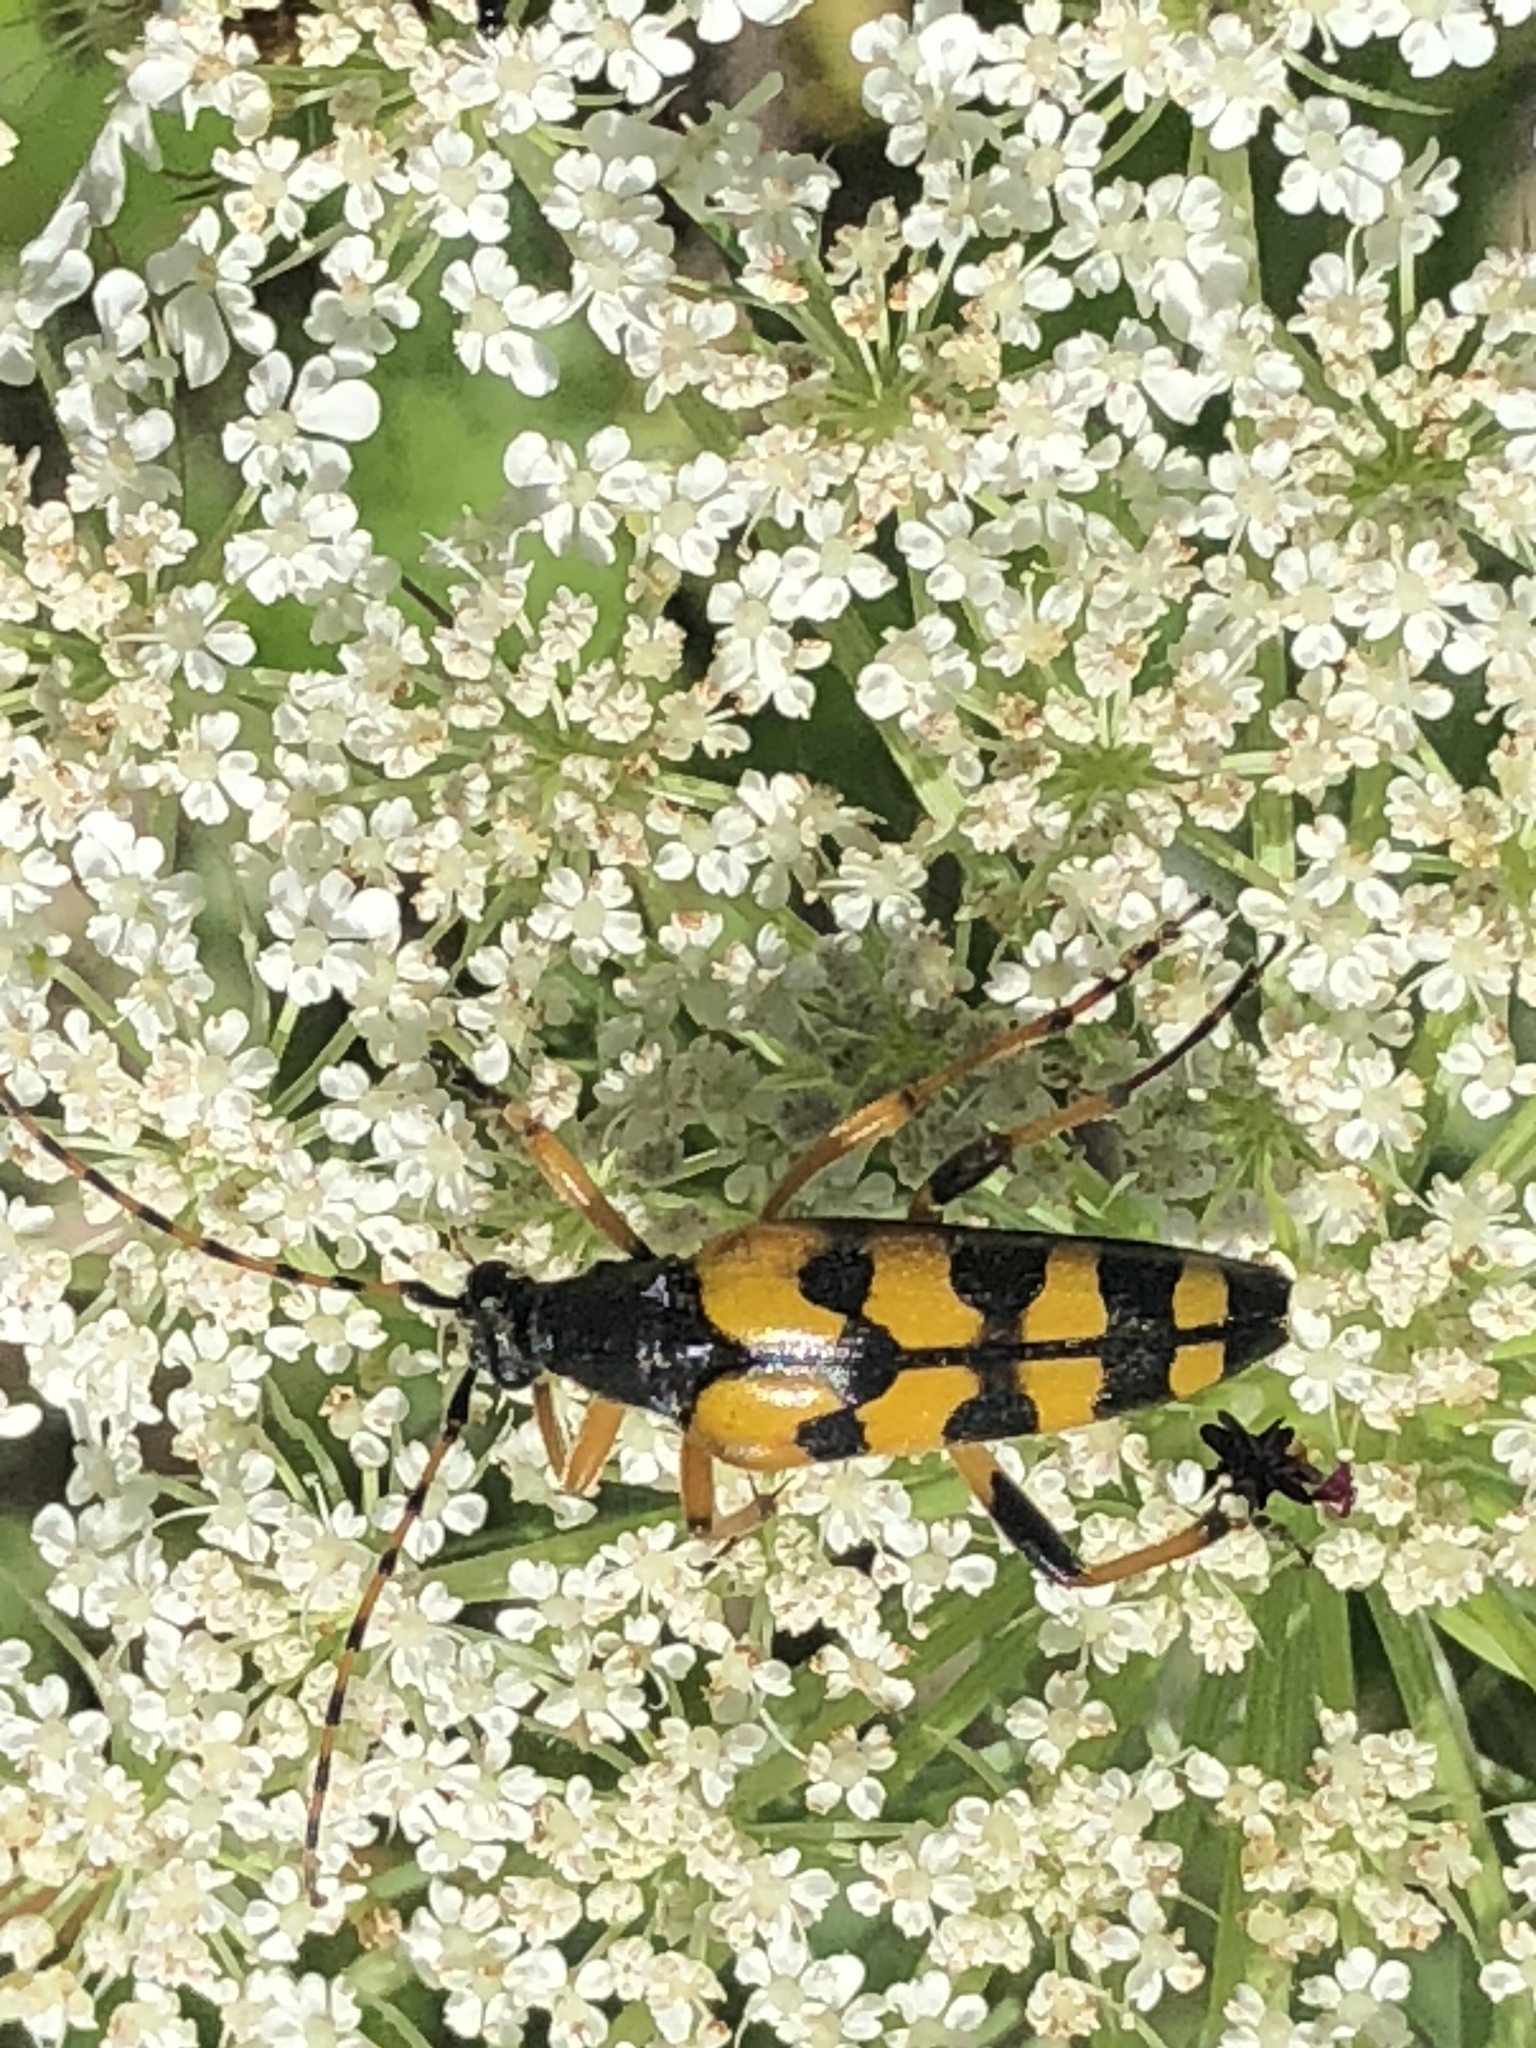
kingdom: Animalia
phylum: Arthropoda
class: Insecta
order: Coleoptera
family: Cerambycidae
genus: Rutpela
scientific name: Rutpela maculata
